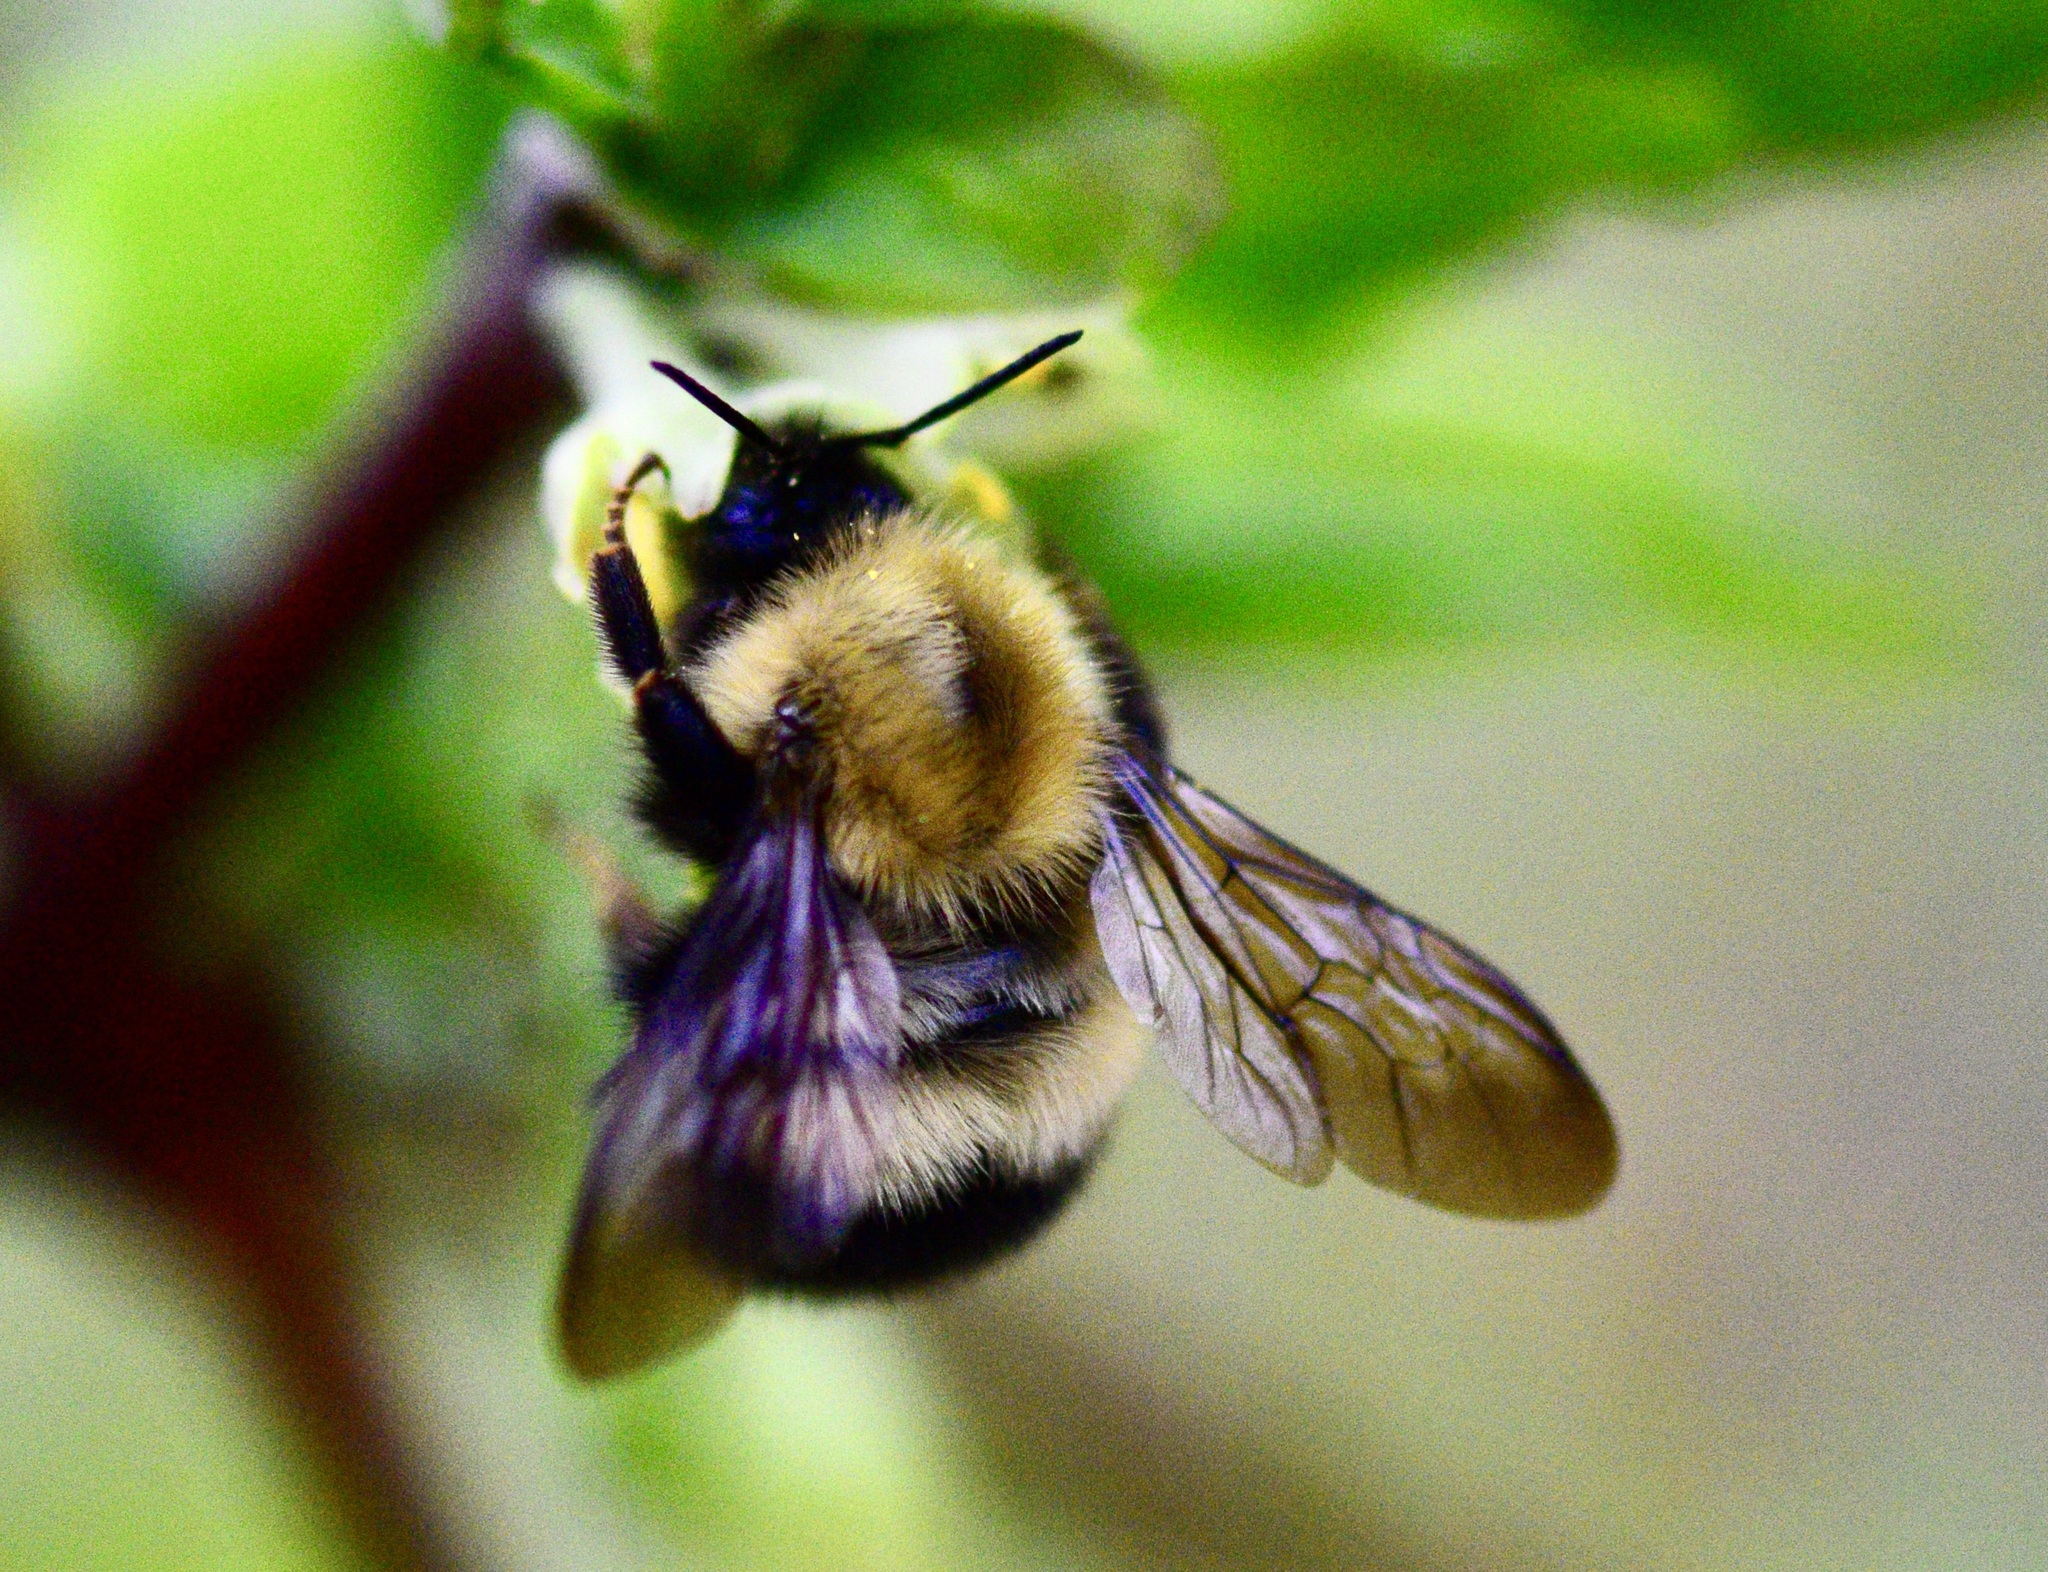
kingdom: Animalia
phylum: Arthropoda
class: Insecta
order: Hymenoptera
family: Apidae
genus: Bombus
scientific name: Bombus perplexus
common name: Confusing bumble bee
